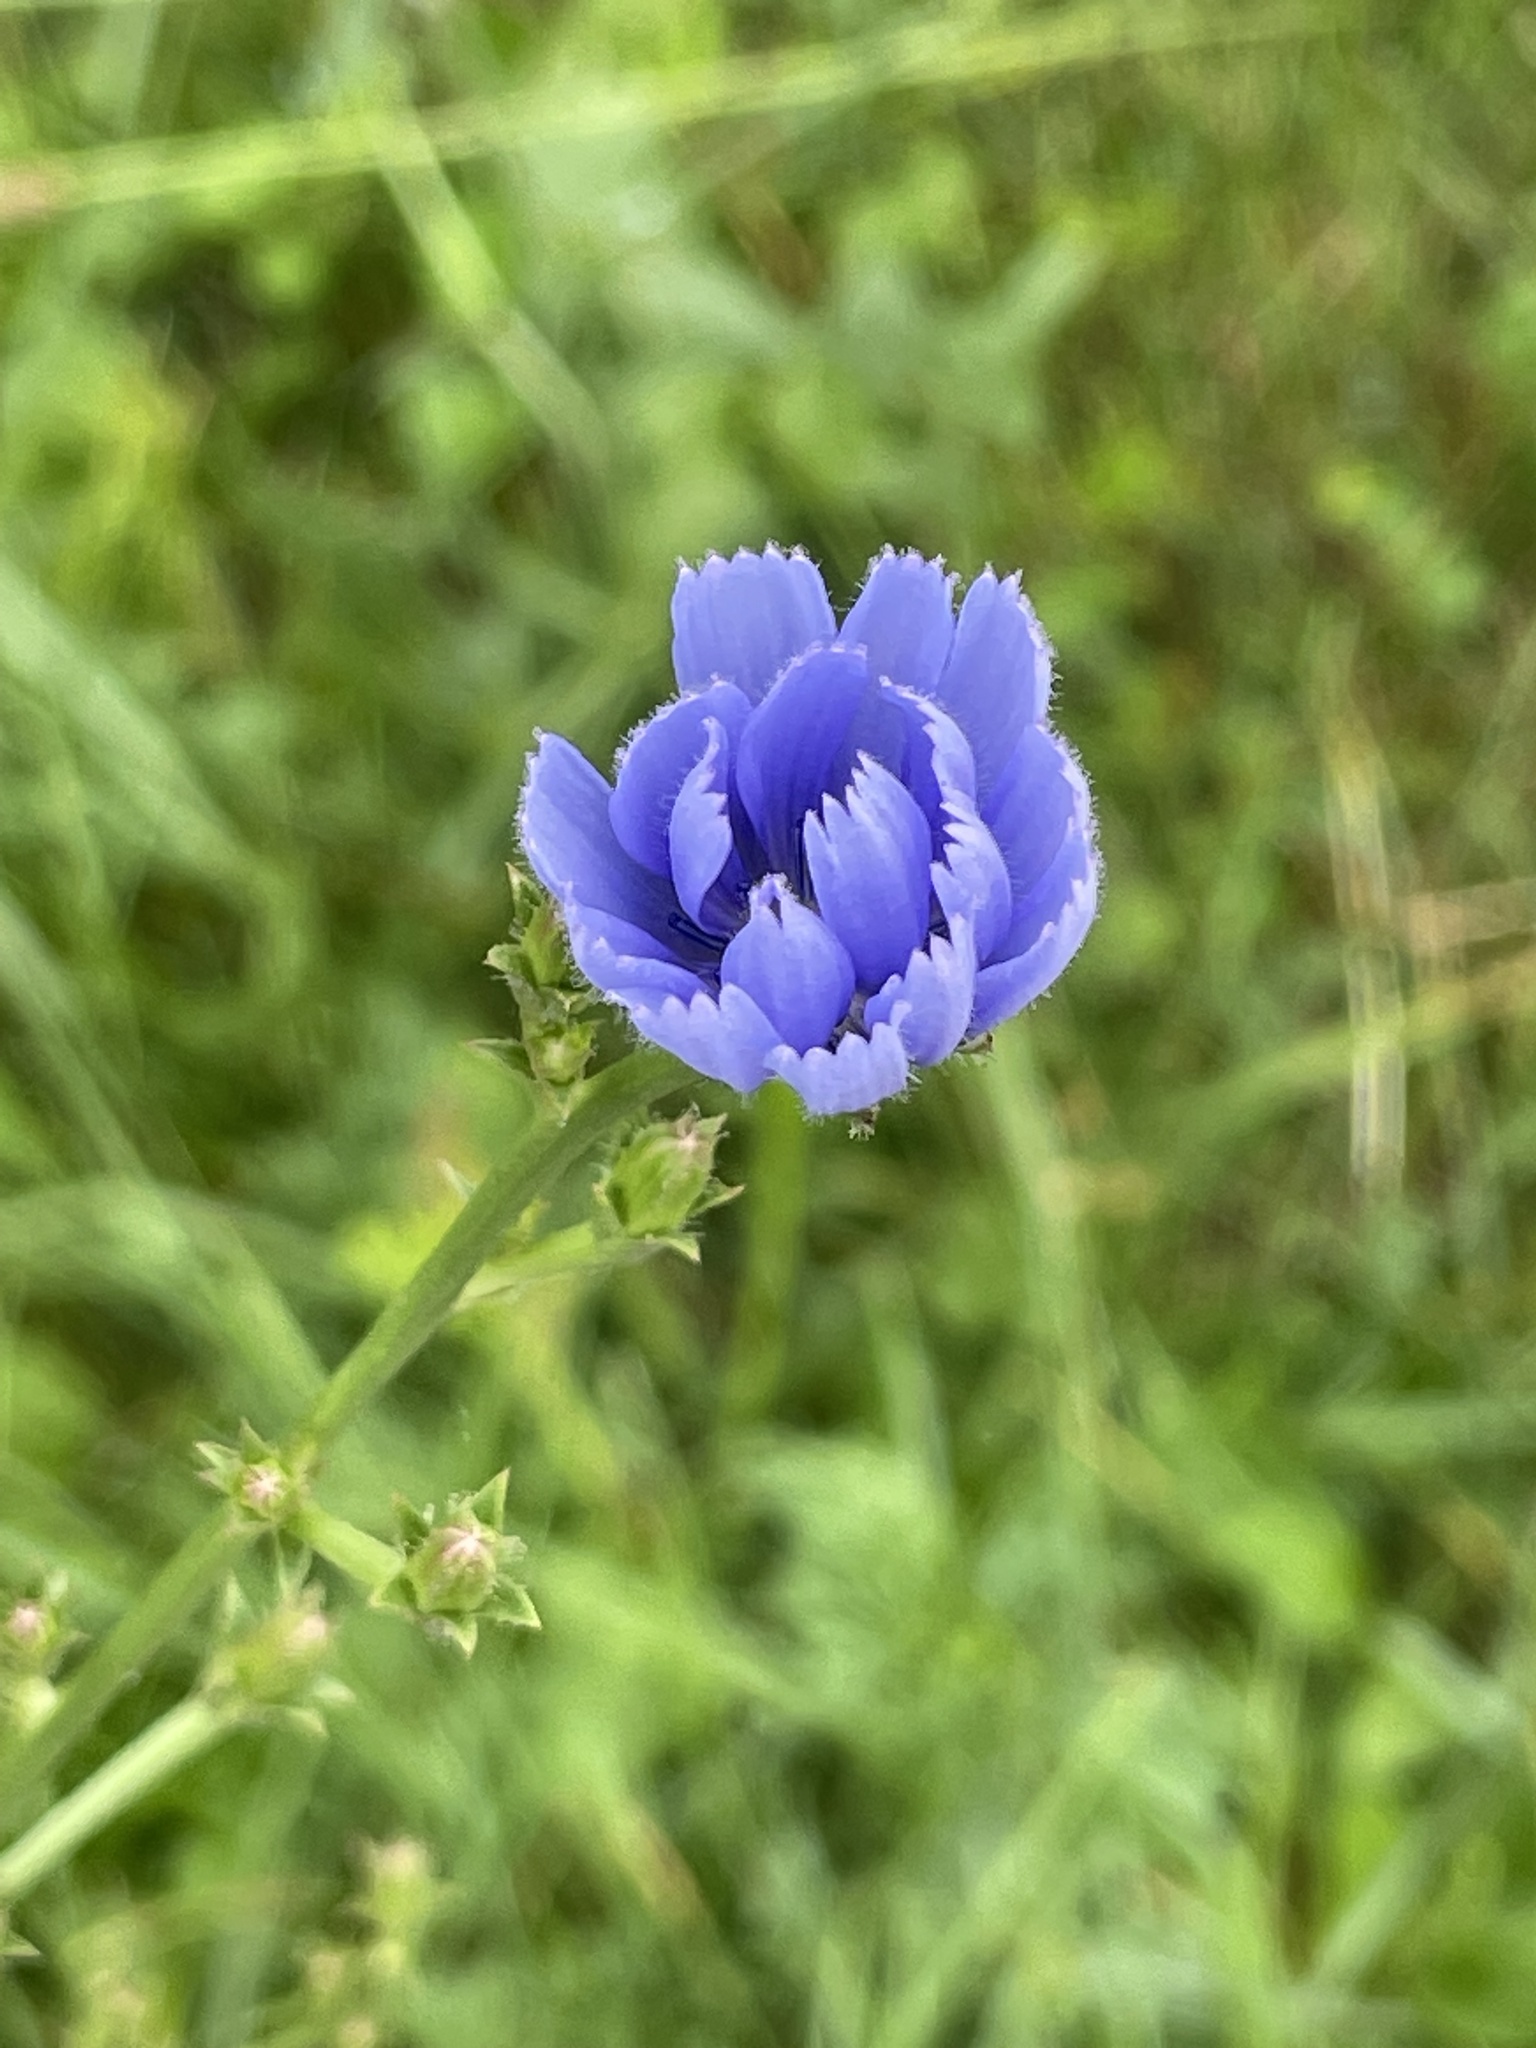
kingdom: Plantae
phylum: Tracheophyta
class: Magnoliopsida
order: Asterales
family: Asteraceae
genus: Cichorium
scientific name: Cichorium intybus
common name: Chicory
